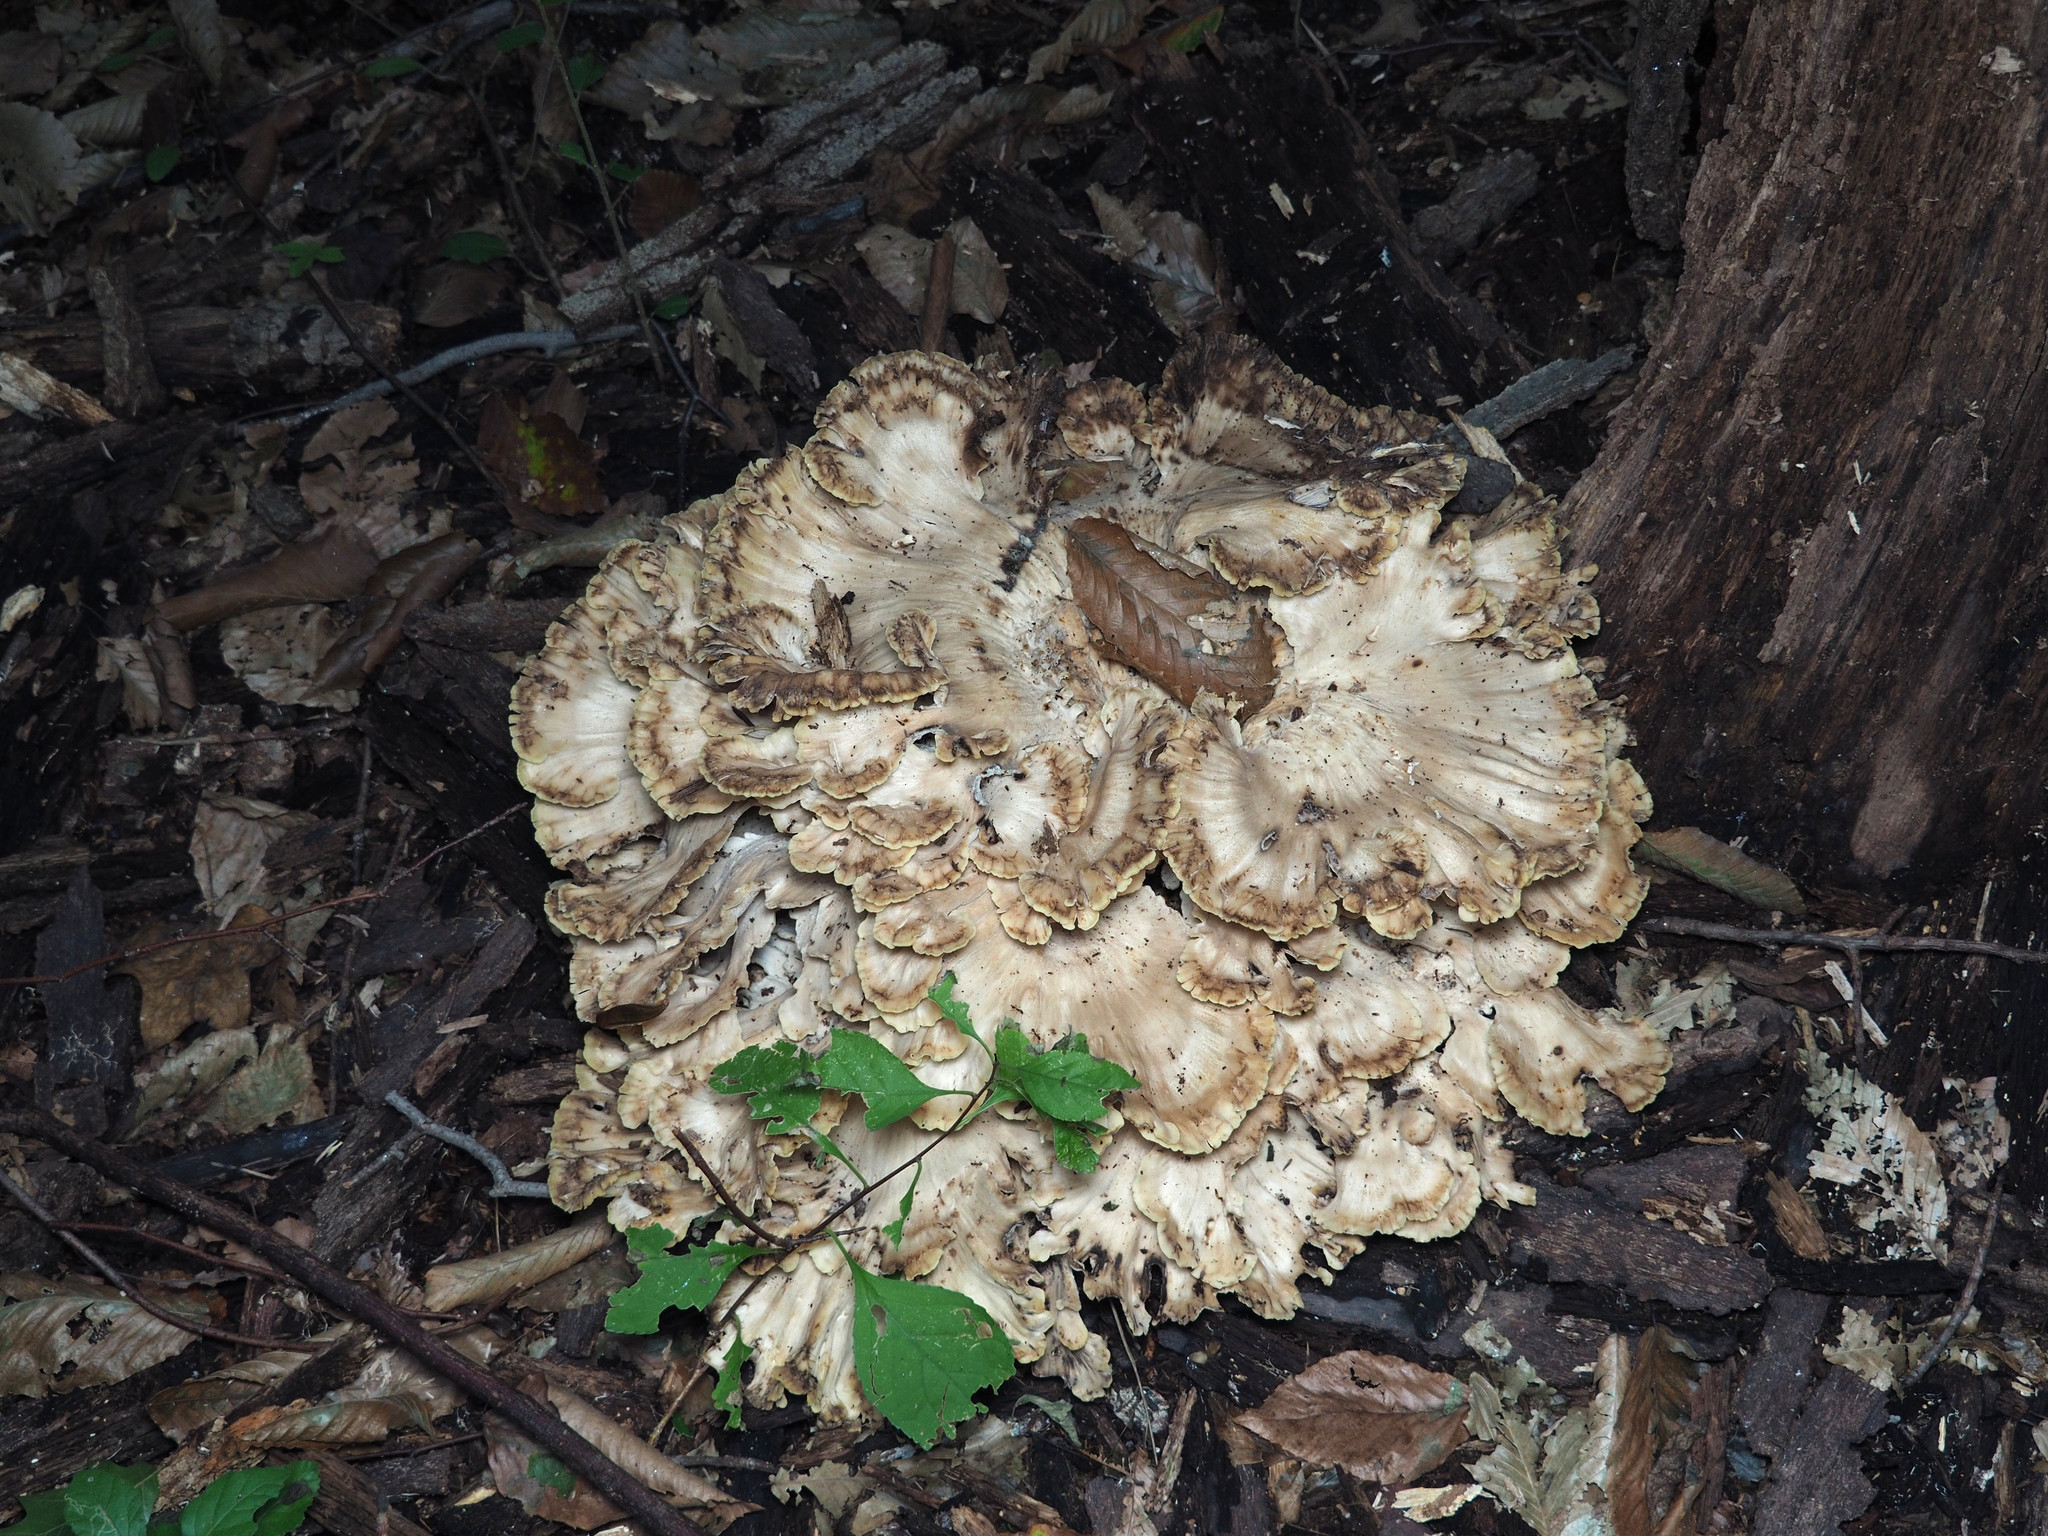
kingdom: Fungi
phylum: Basidiomycota
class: Agaricomycetes
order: Polyporales
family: Meripilaceae
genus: Meripilus
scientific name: Meripilus sumstinei
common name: Black-staining polypore
